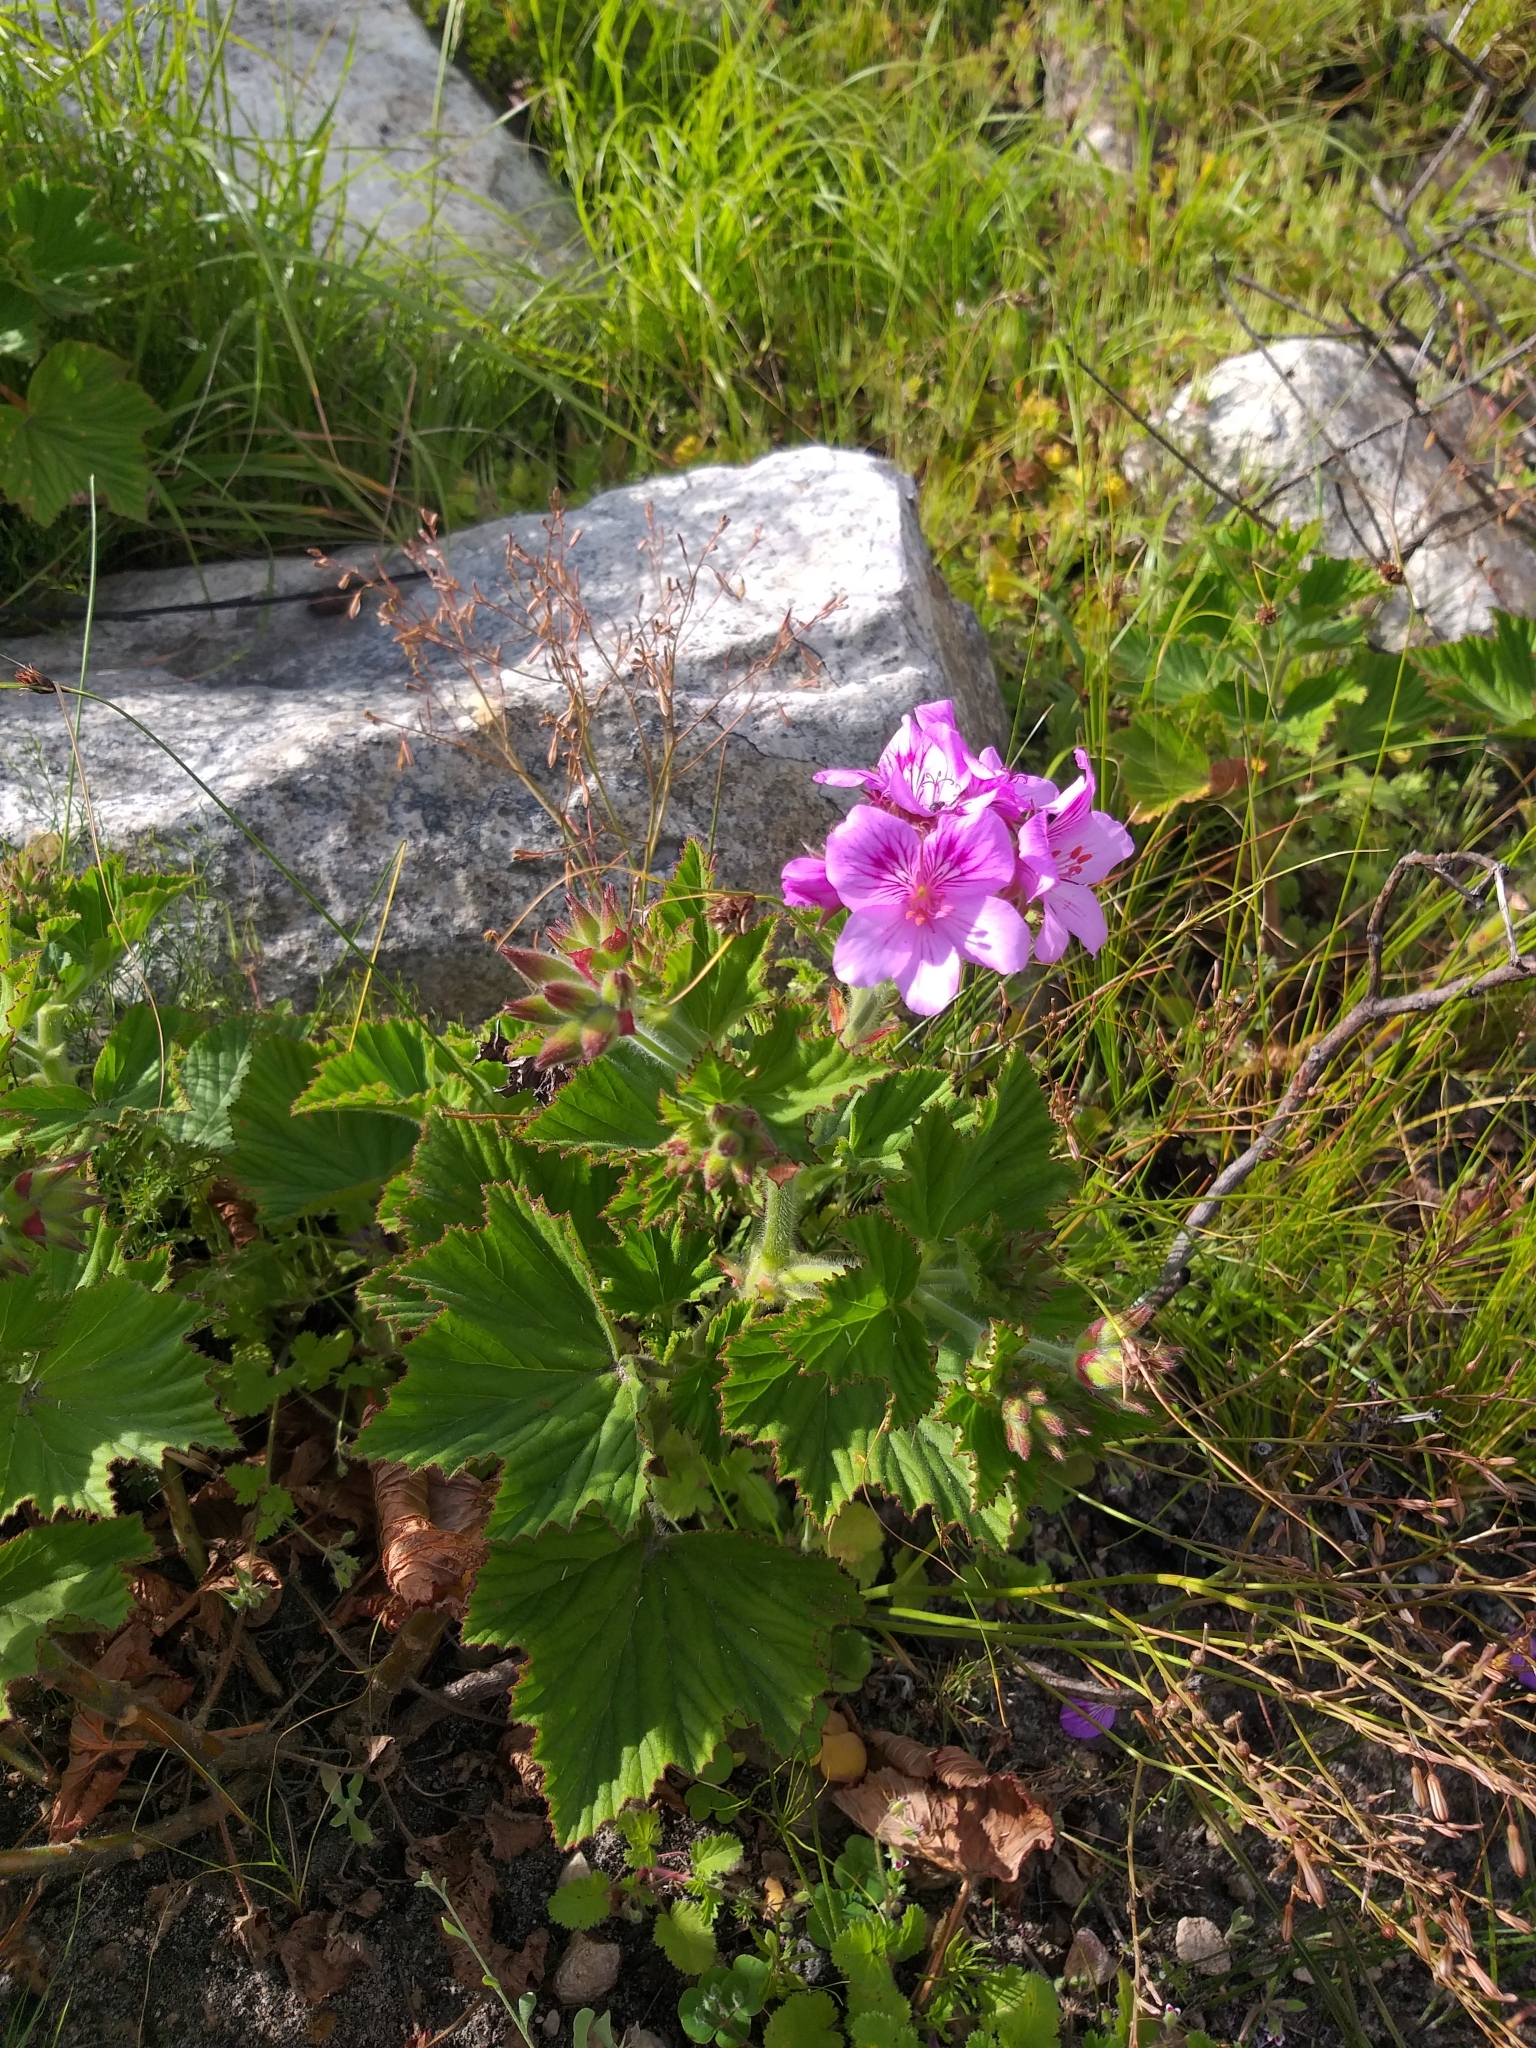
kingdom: Plantae
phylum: Tracheophyta
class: Magnoliopsida
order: Geraniales
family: Geraniaceae
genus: Pelargonium
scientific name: Pelargonium cucullatum
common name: Tree pelargonium
